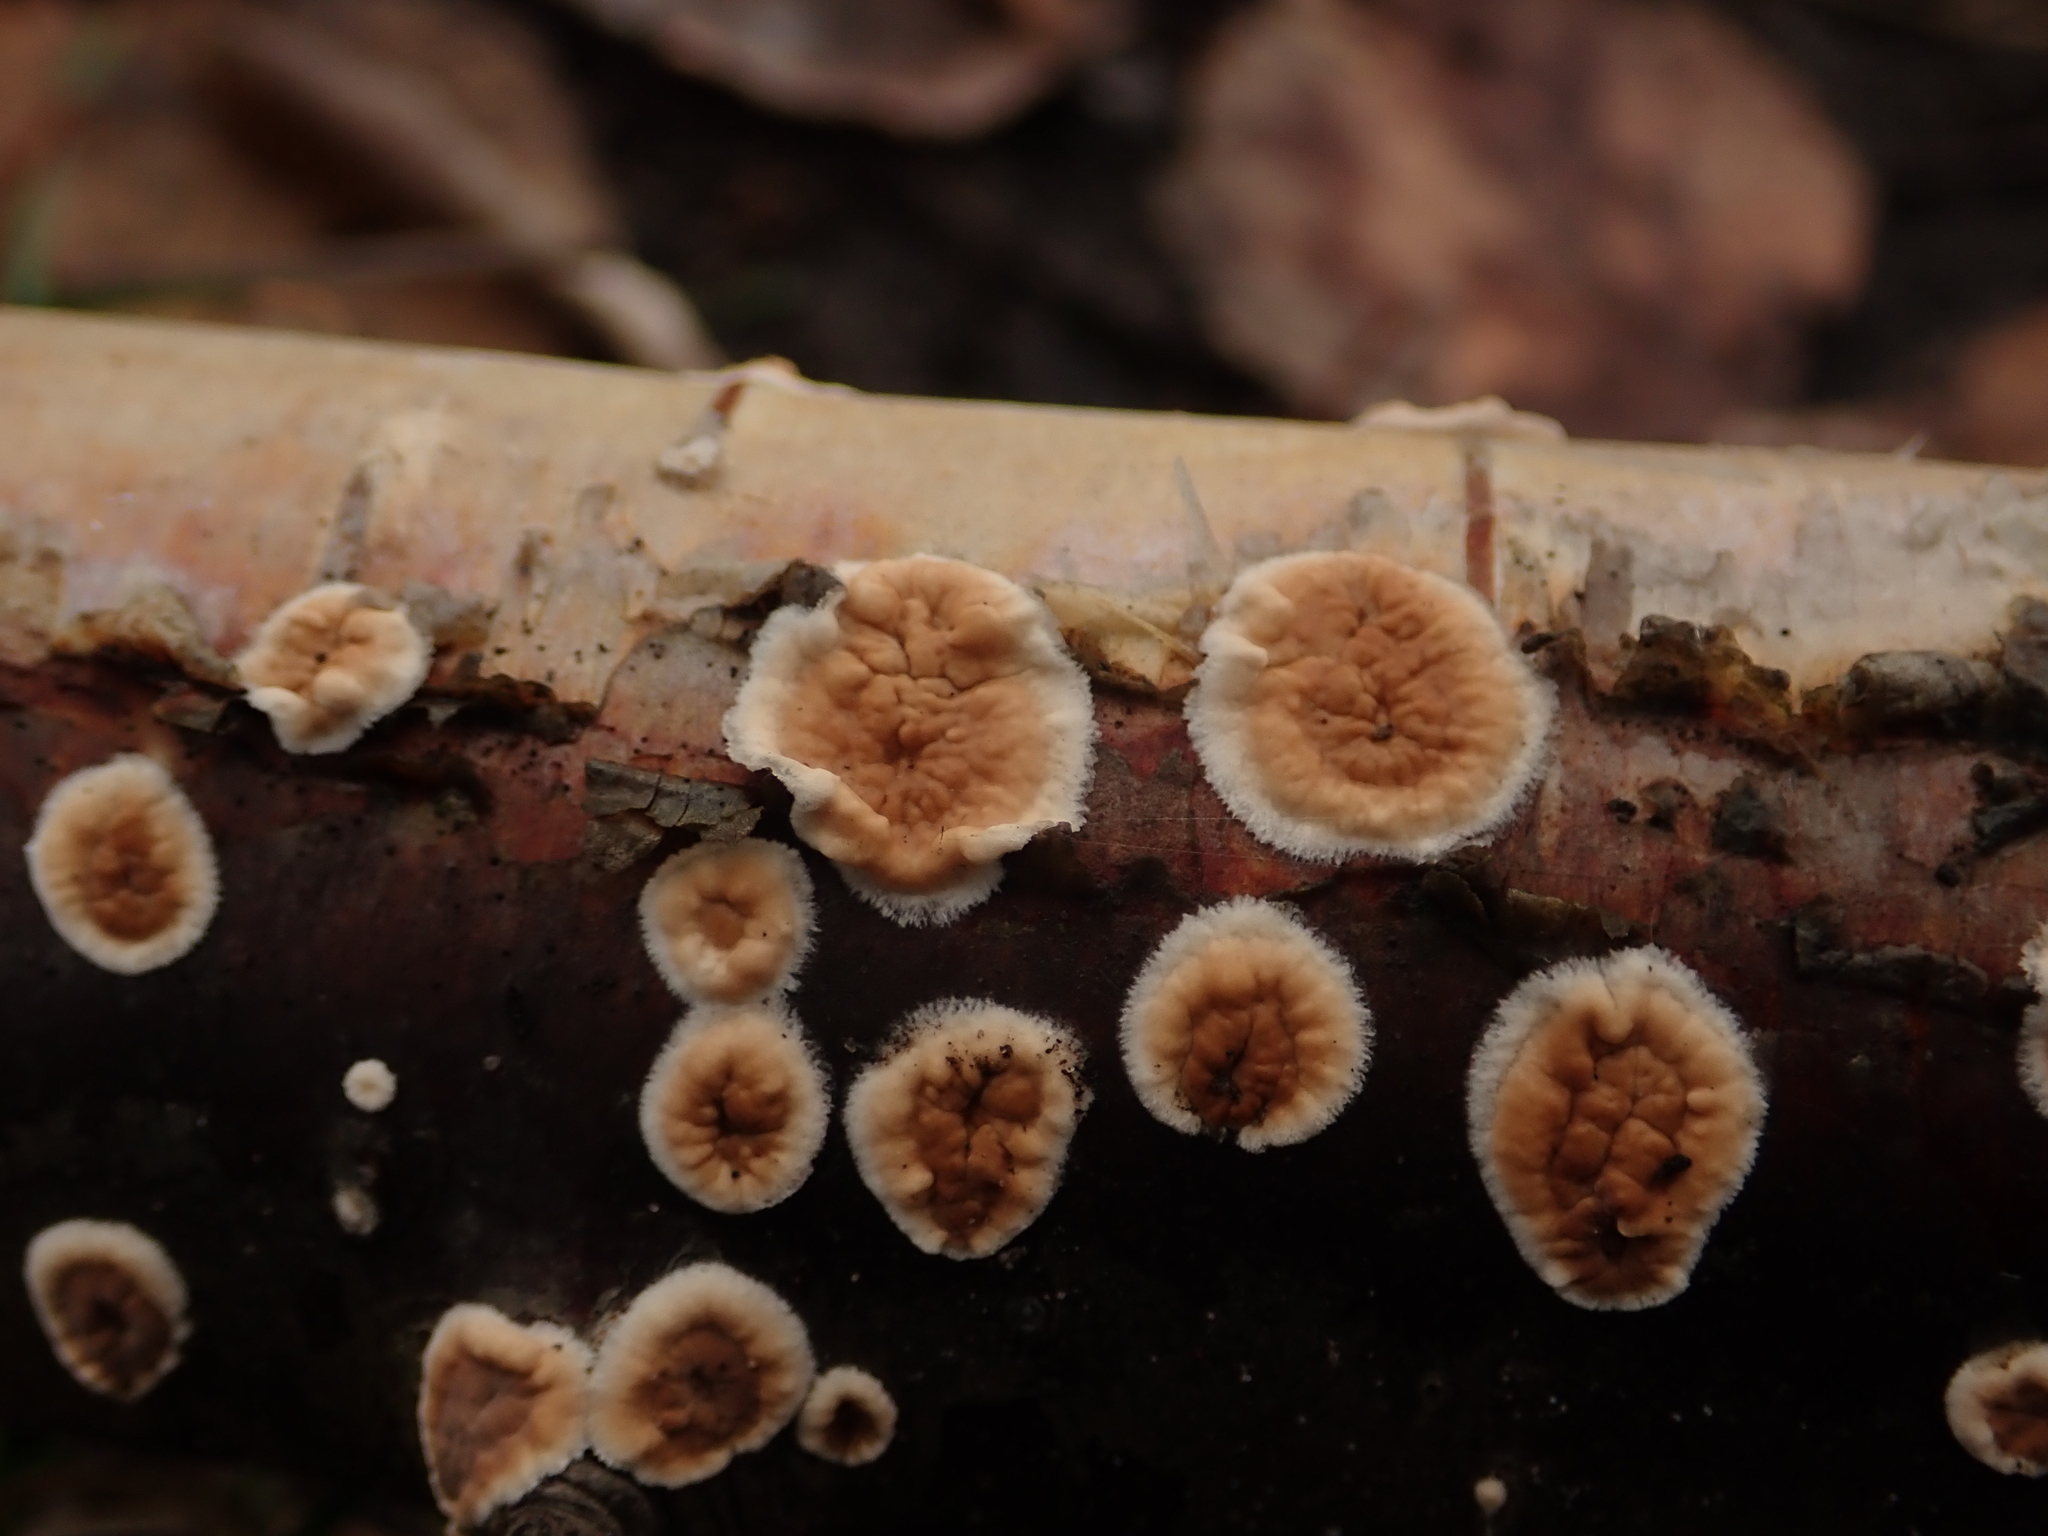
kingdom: Fungi
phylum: Basidiomycota
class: Agaricomycetes
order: Agaricales
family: Physalacriaceae
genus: Cylindrobasidium
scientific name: Cylindrobasidium laeve
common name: Tear dropper
